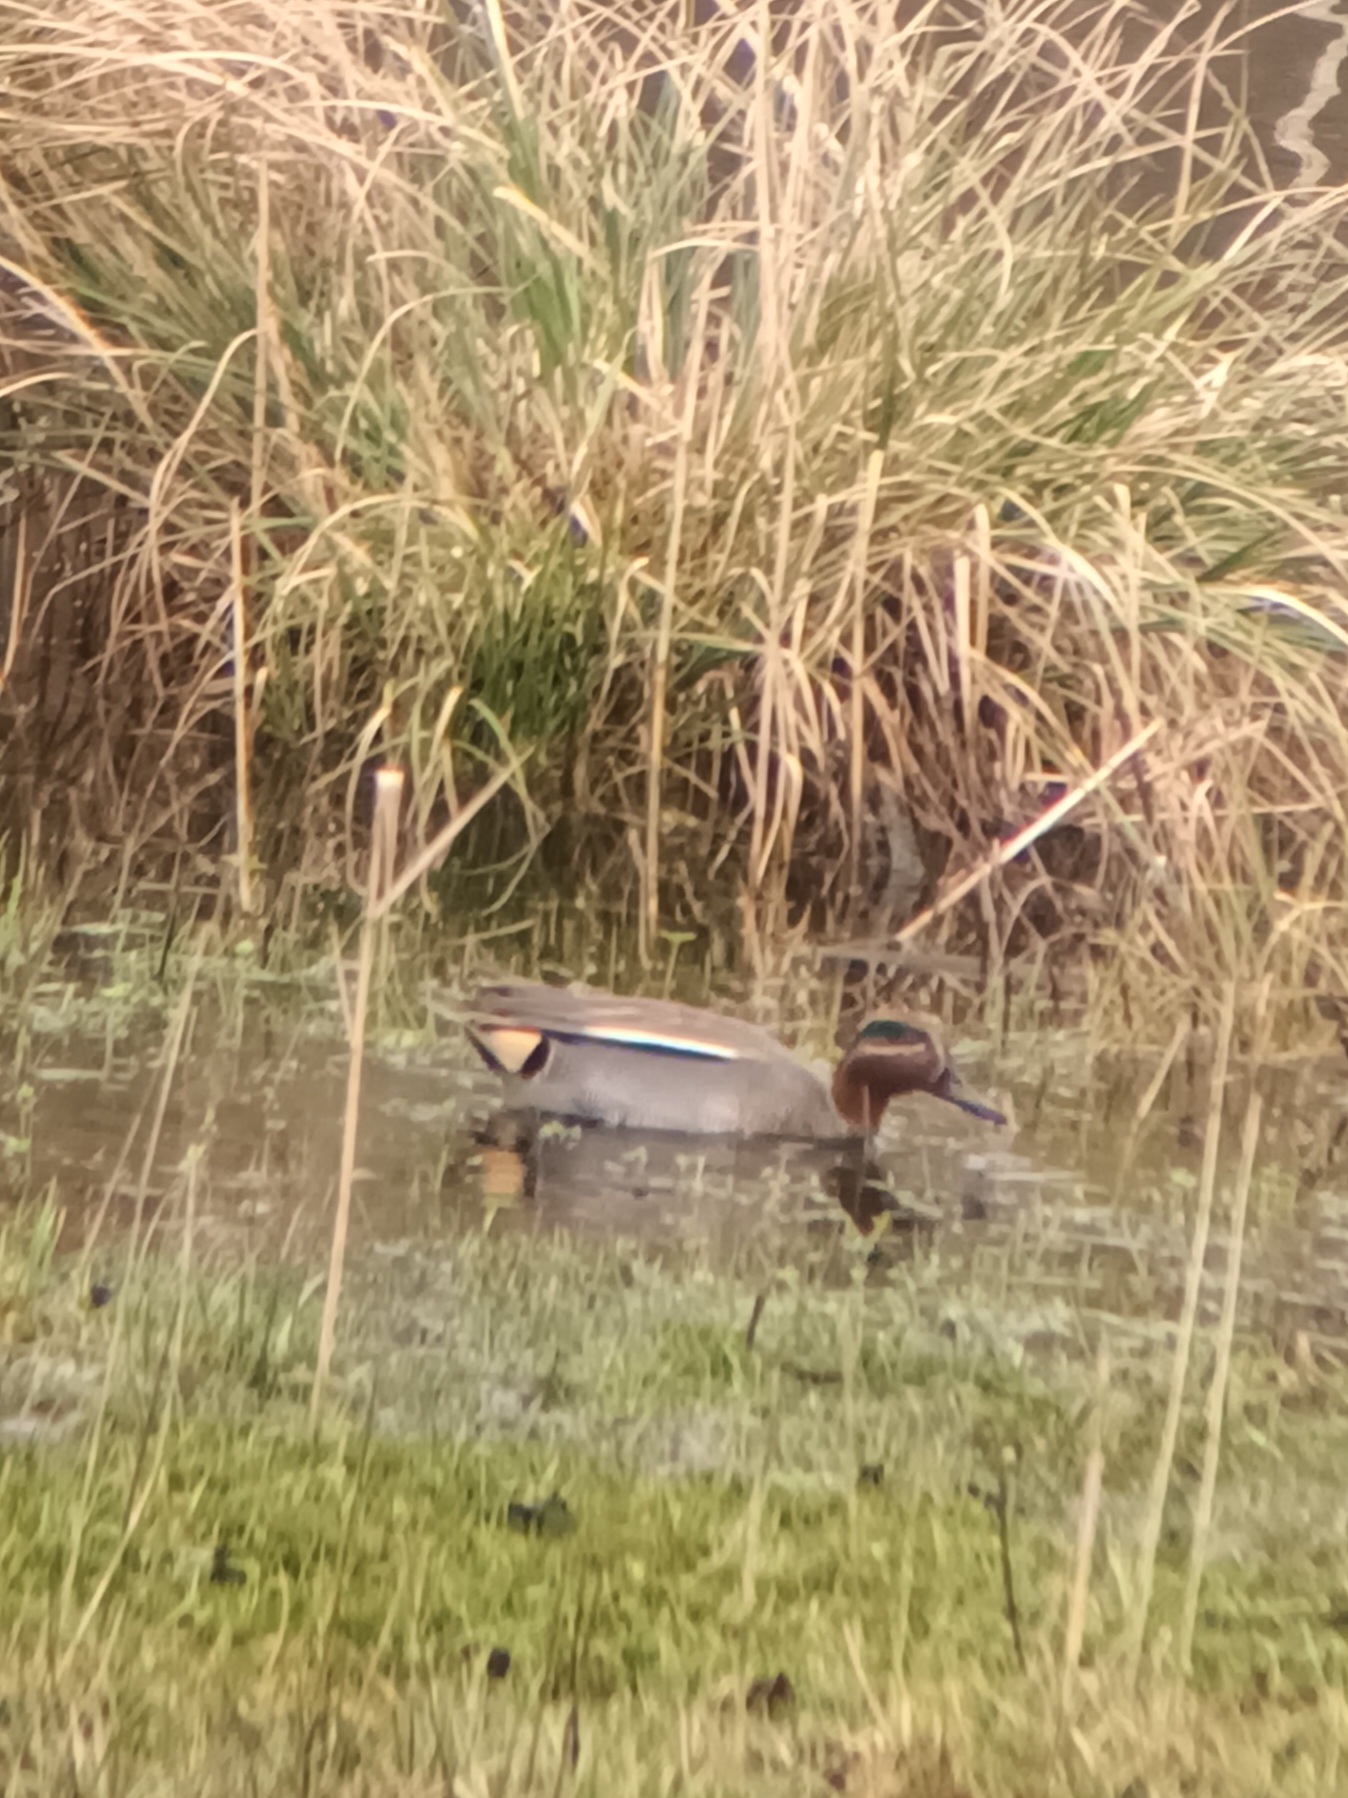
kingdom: Animalia
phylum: Chordata
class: Aves
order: Anseriformes
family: Anatidae
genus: Anas
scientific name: Anas crecca
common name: Eurasian teal
